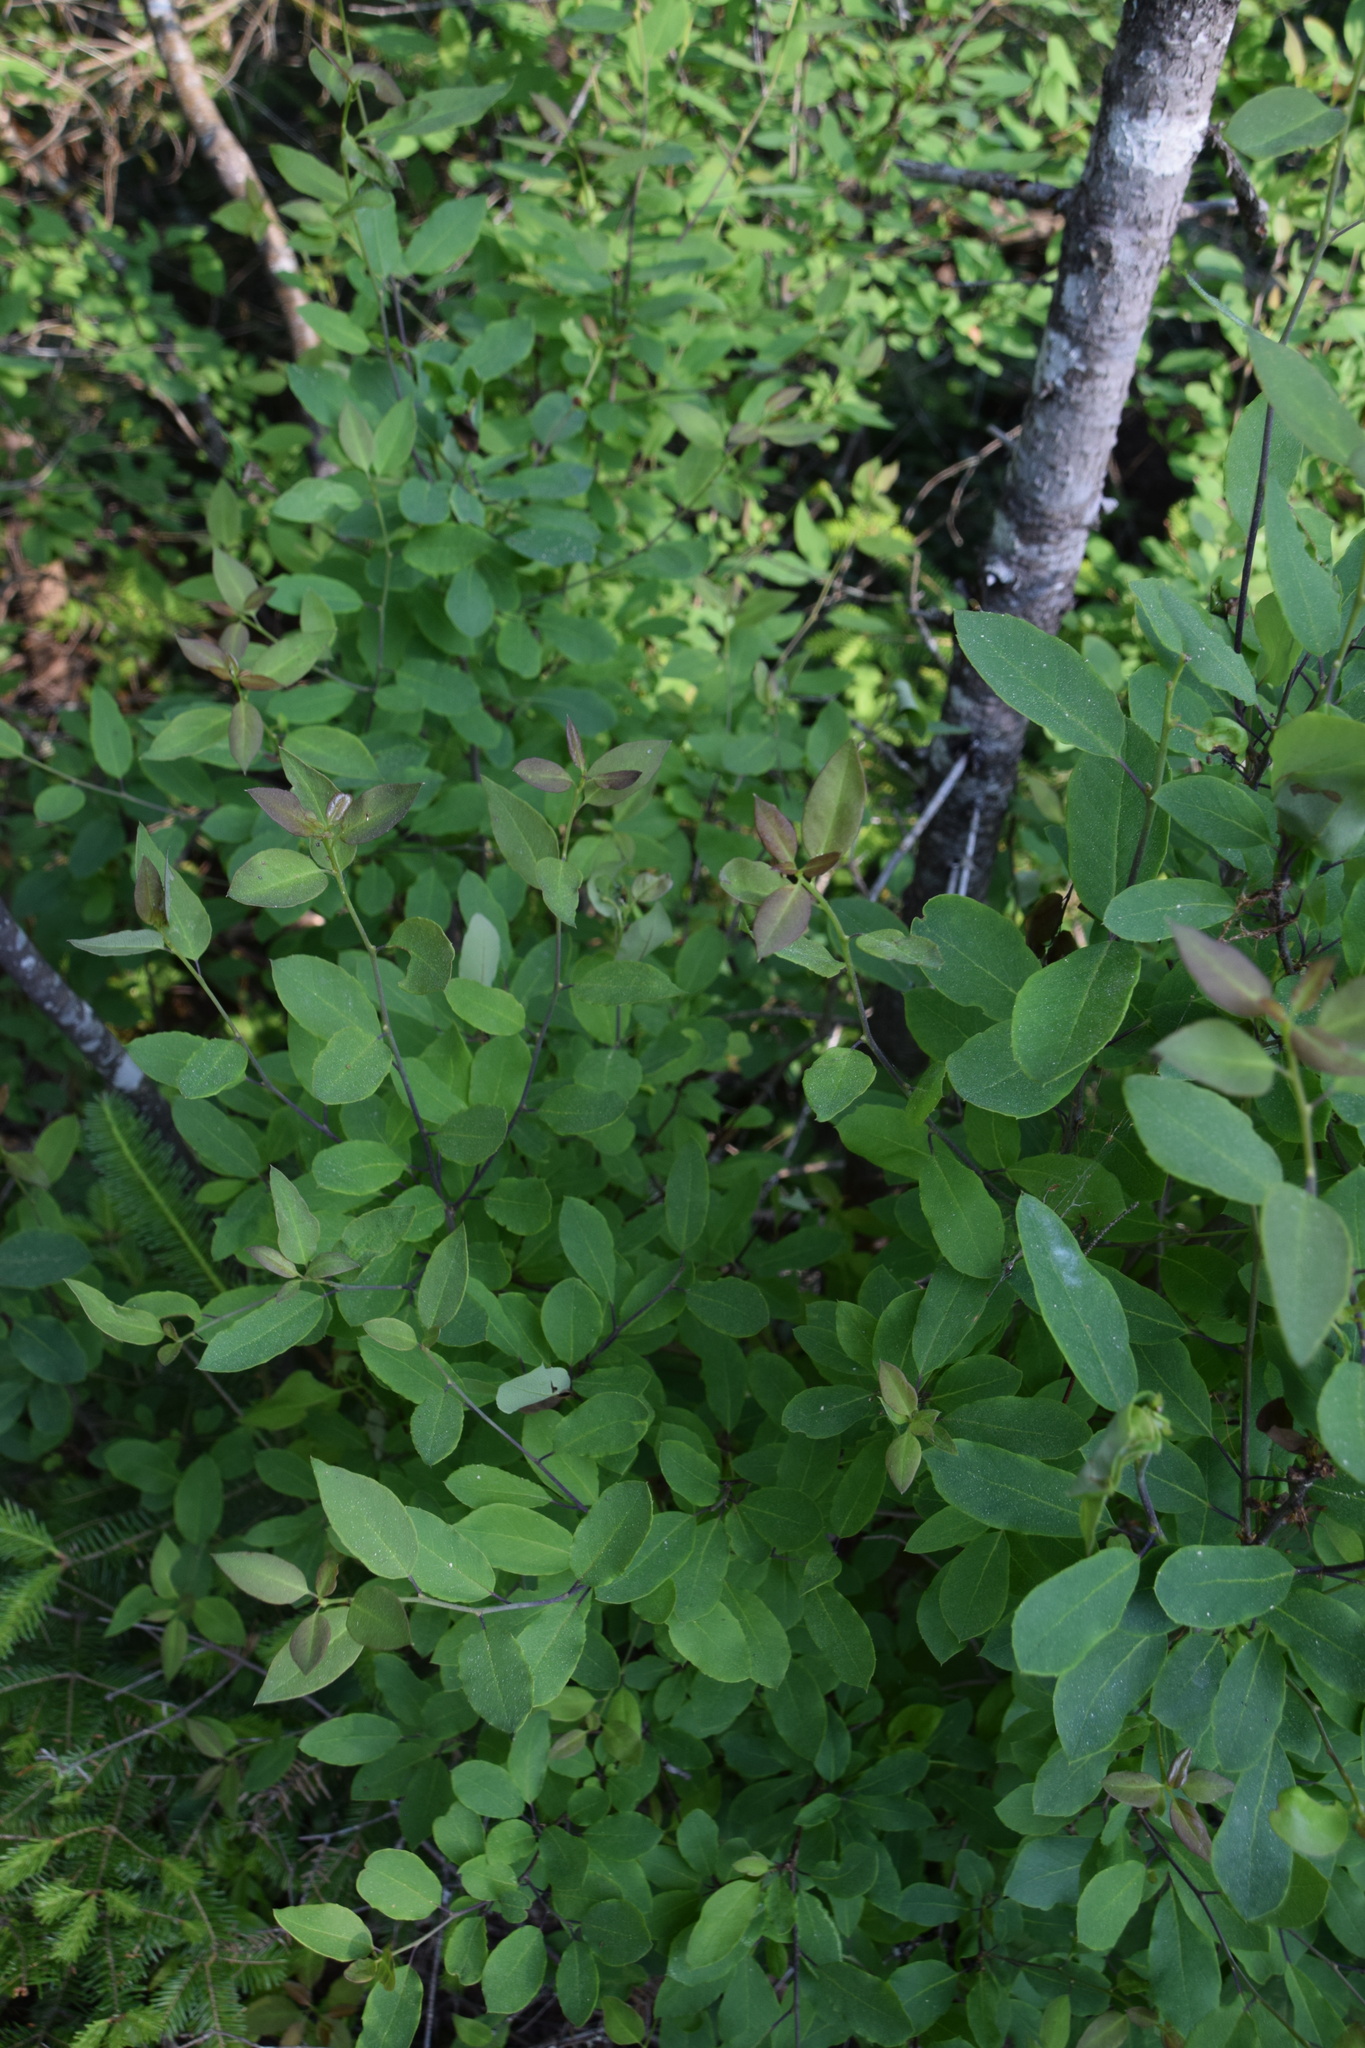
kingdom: Plantae
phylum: Tracheophyta
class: Magnoliopsida
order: Aquifoliales
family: Aquifoliaceae
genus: Ilex
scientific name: Ilex mucronata
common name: Catberry
